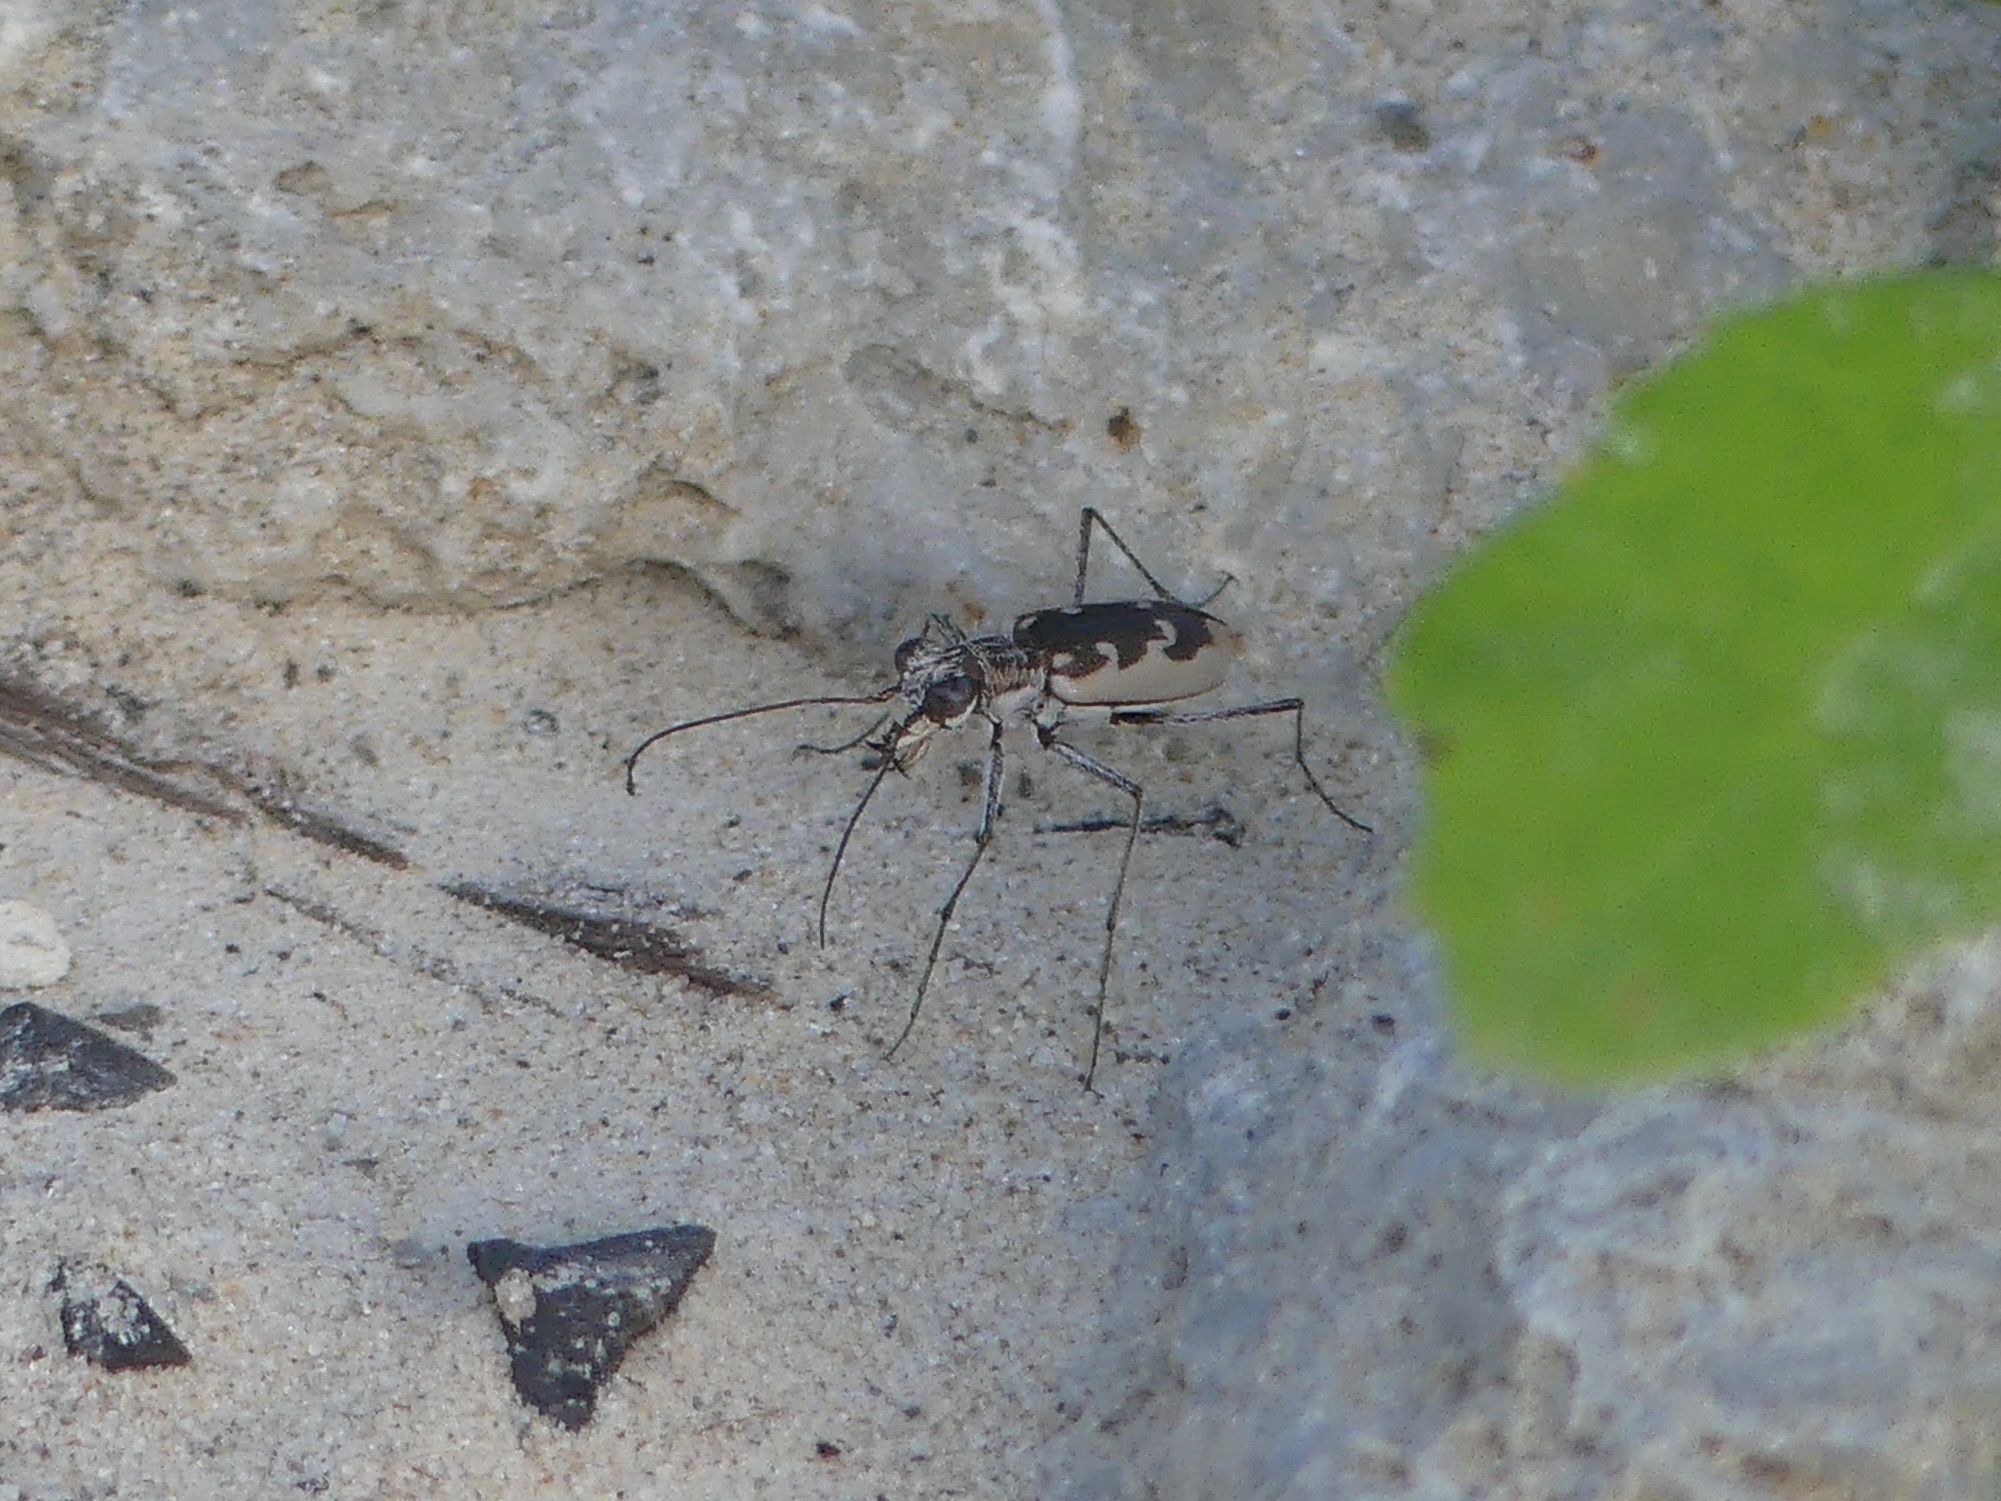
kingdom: Animalia
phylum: Arthropoda
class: Insecta
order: Coleoptera
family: Carabidae
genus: Ellipsoptera
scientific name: Ellipsoptera wapleri
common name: White-sand tiger beetle
